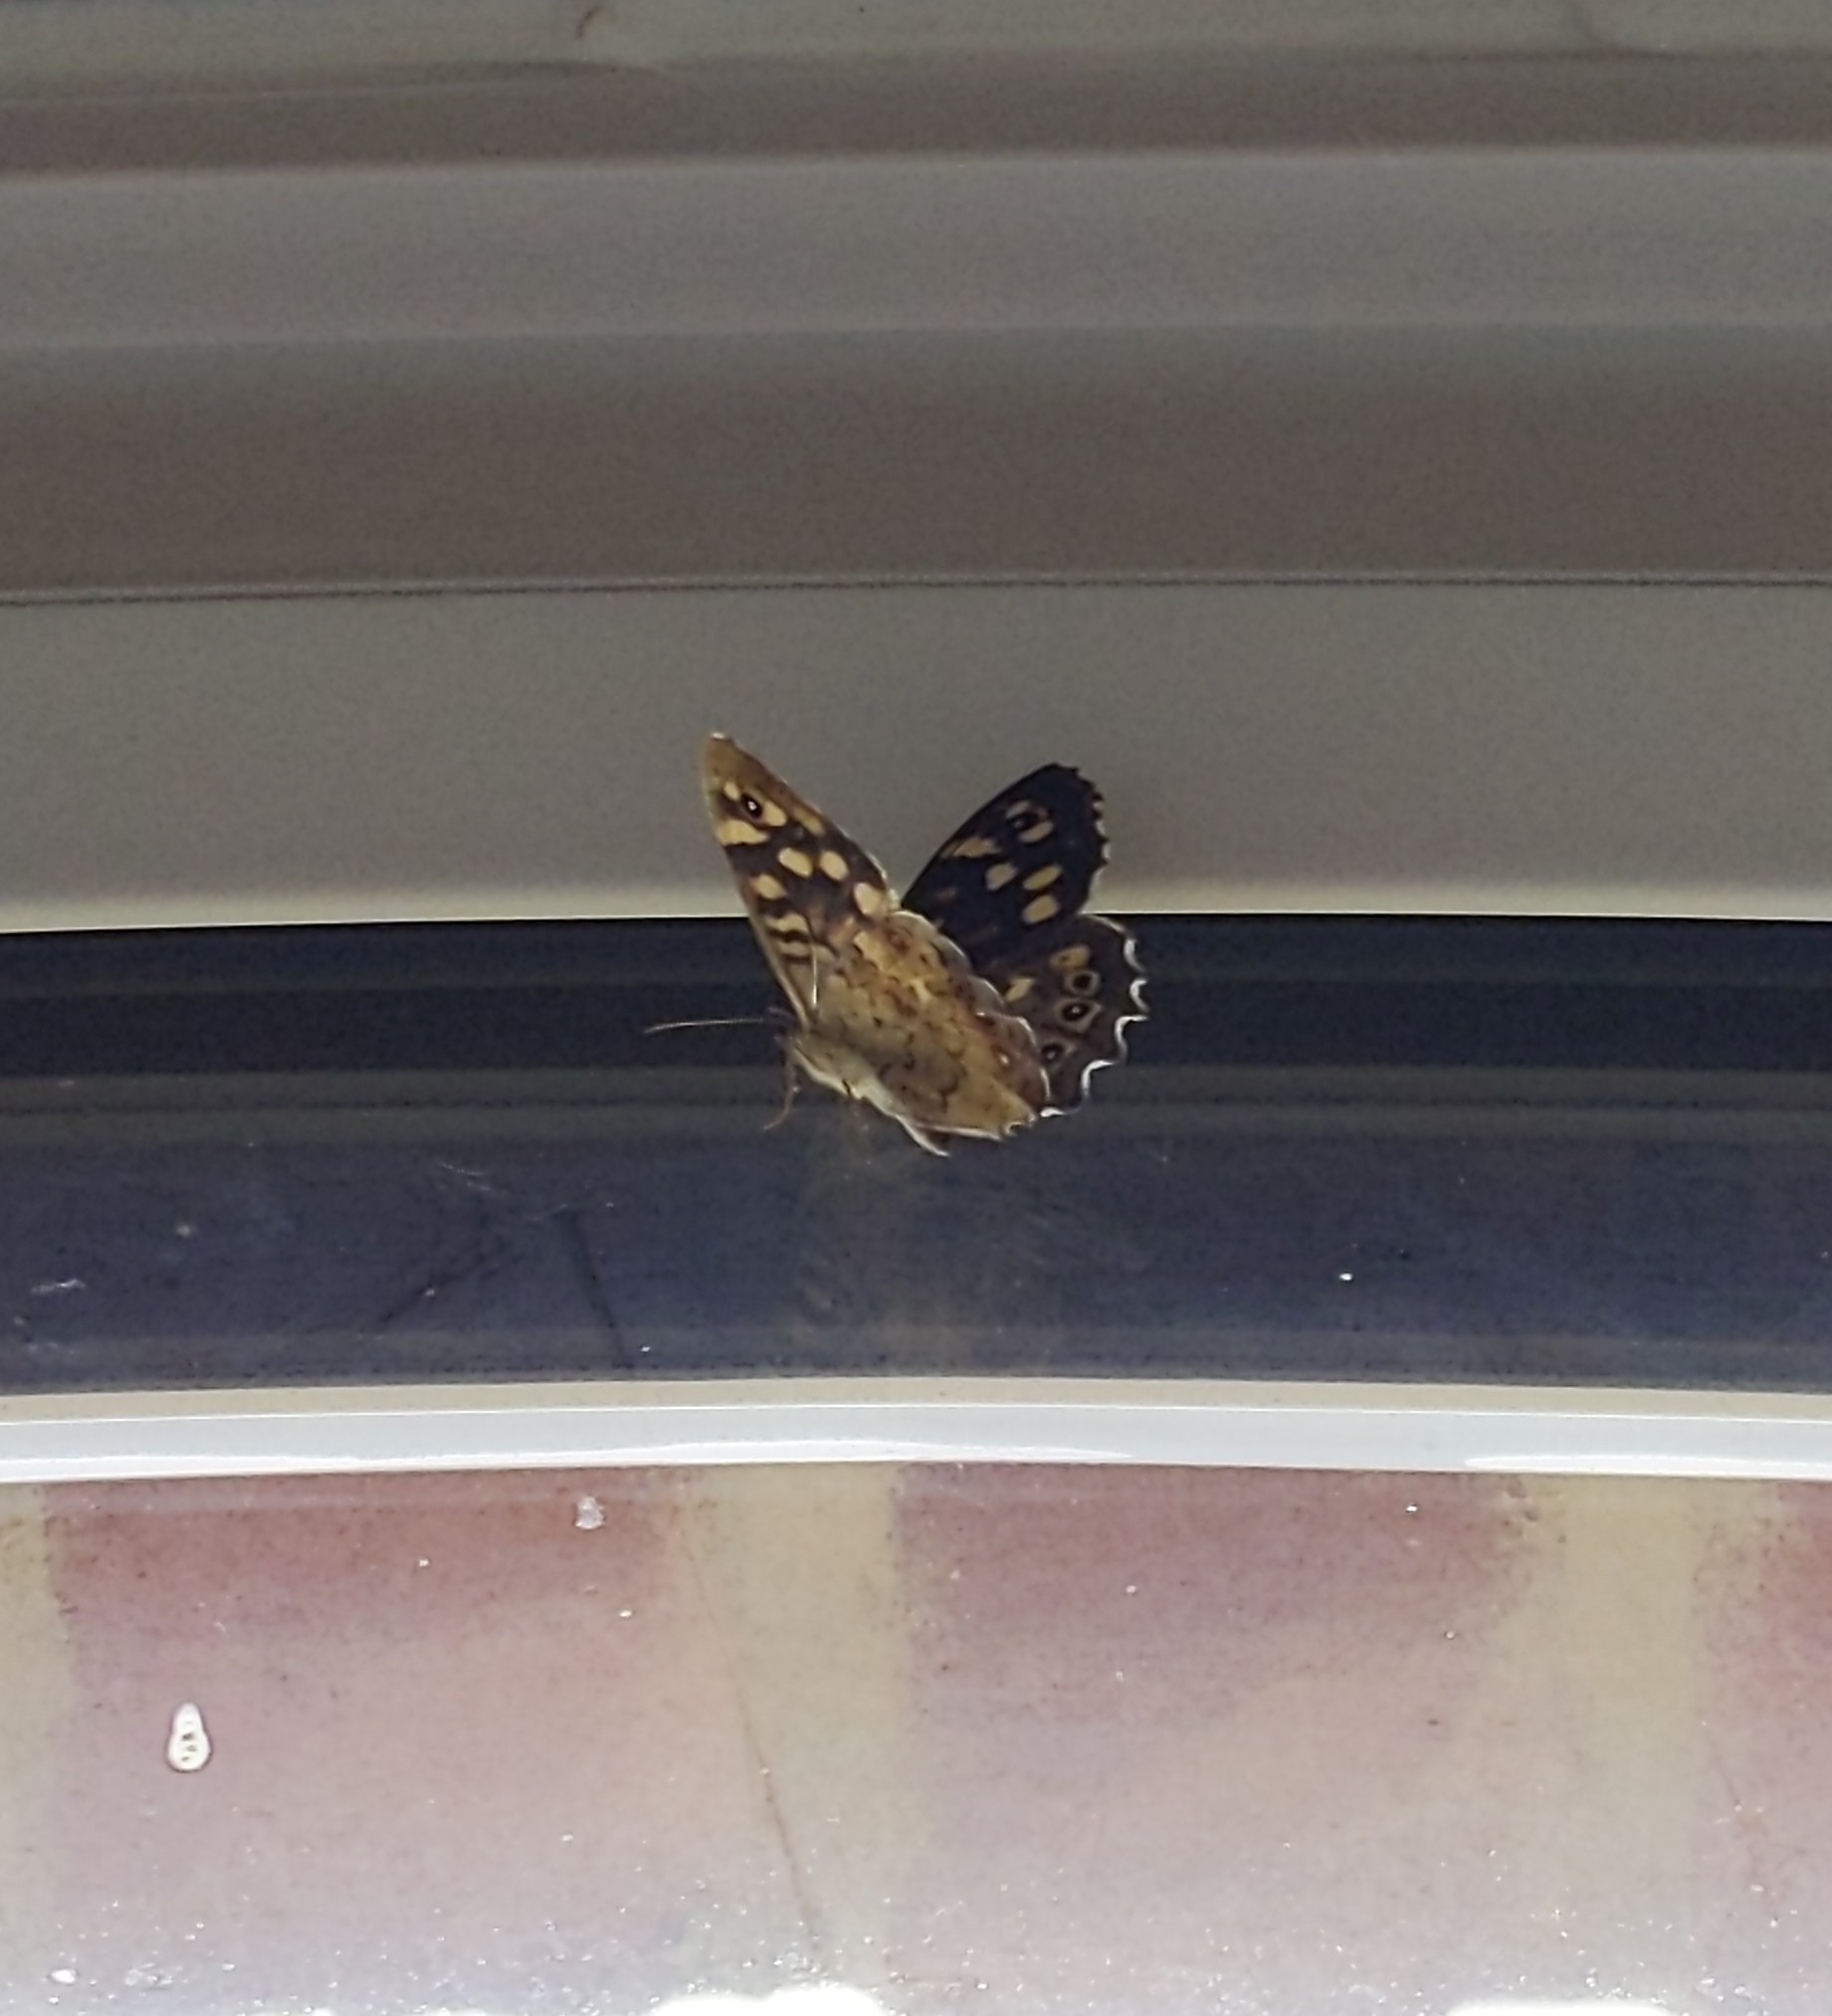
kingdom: Animalia
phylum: Arthropoda
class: Insecta
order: Lepidoptera
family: Nymphalidae
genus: Pararge
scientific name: Pararge aegeria
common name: Speckled wood
